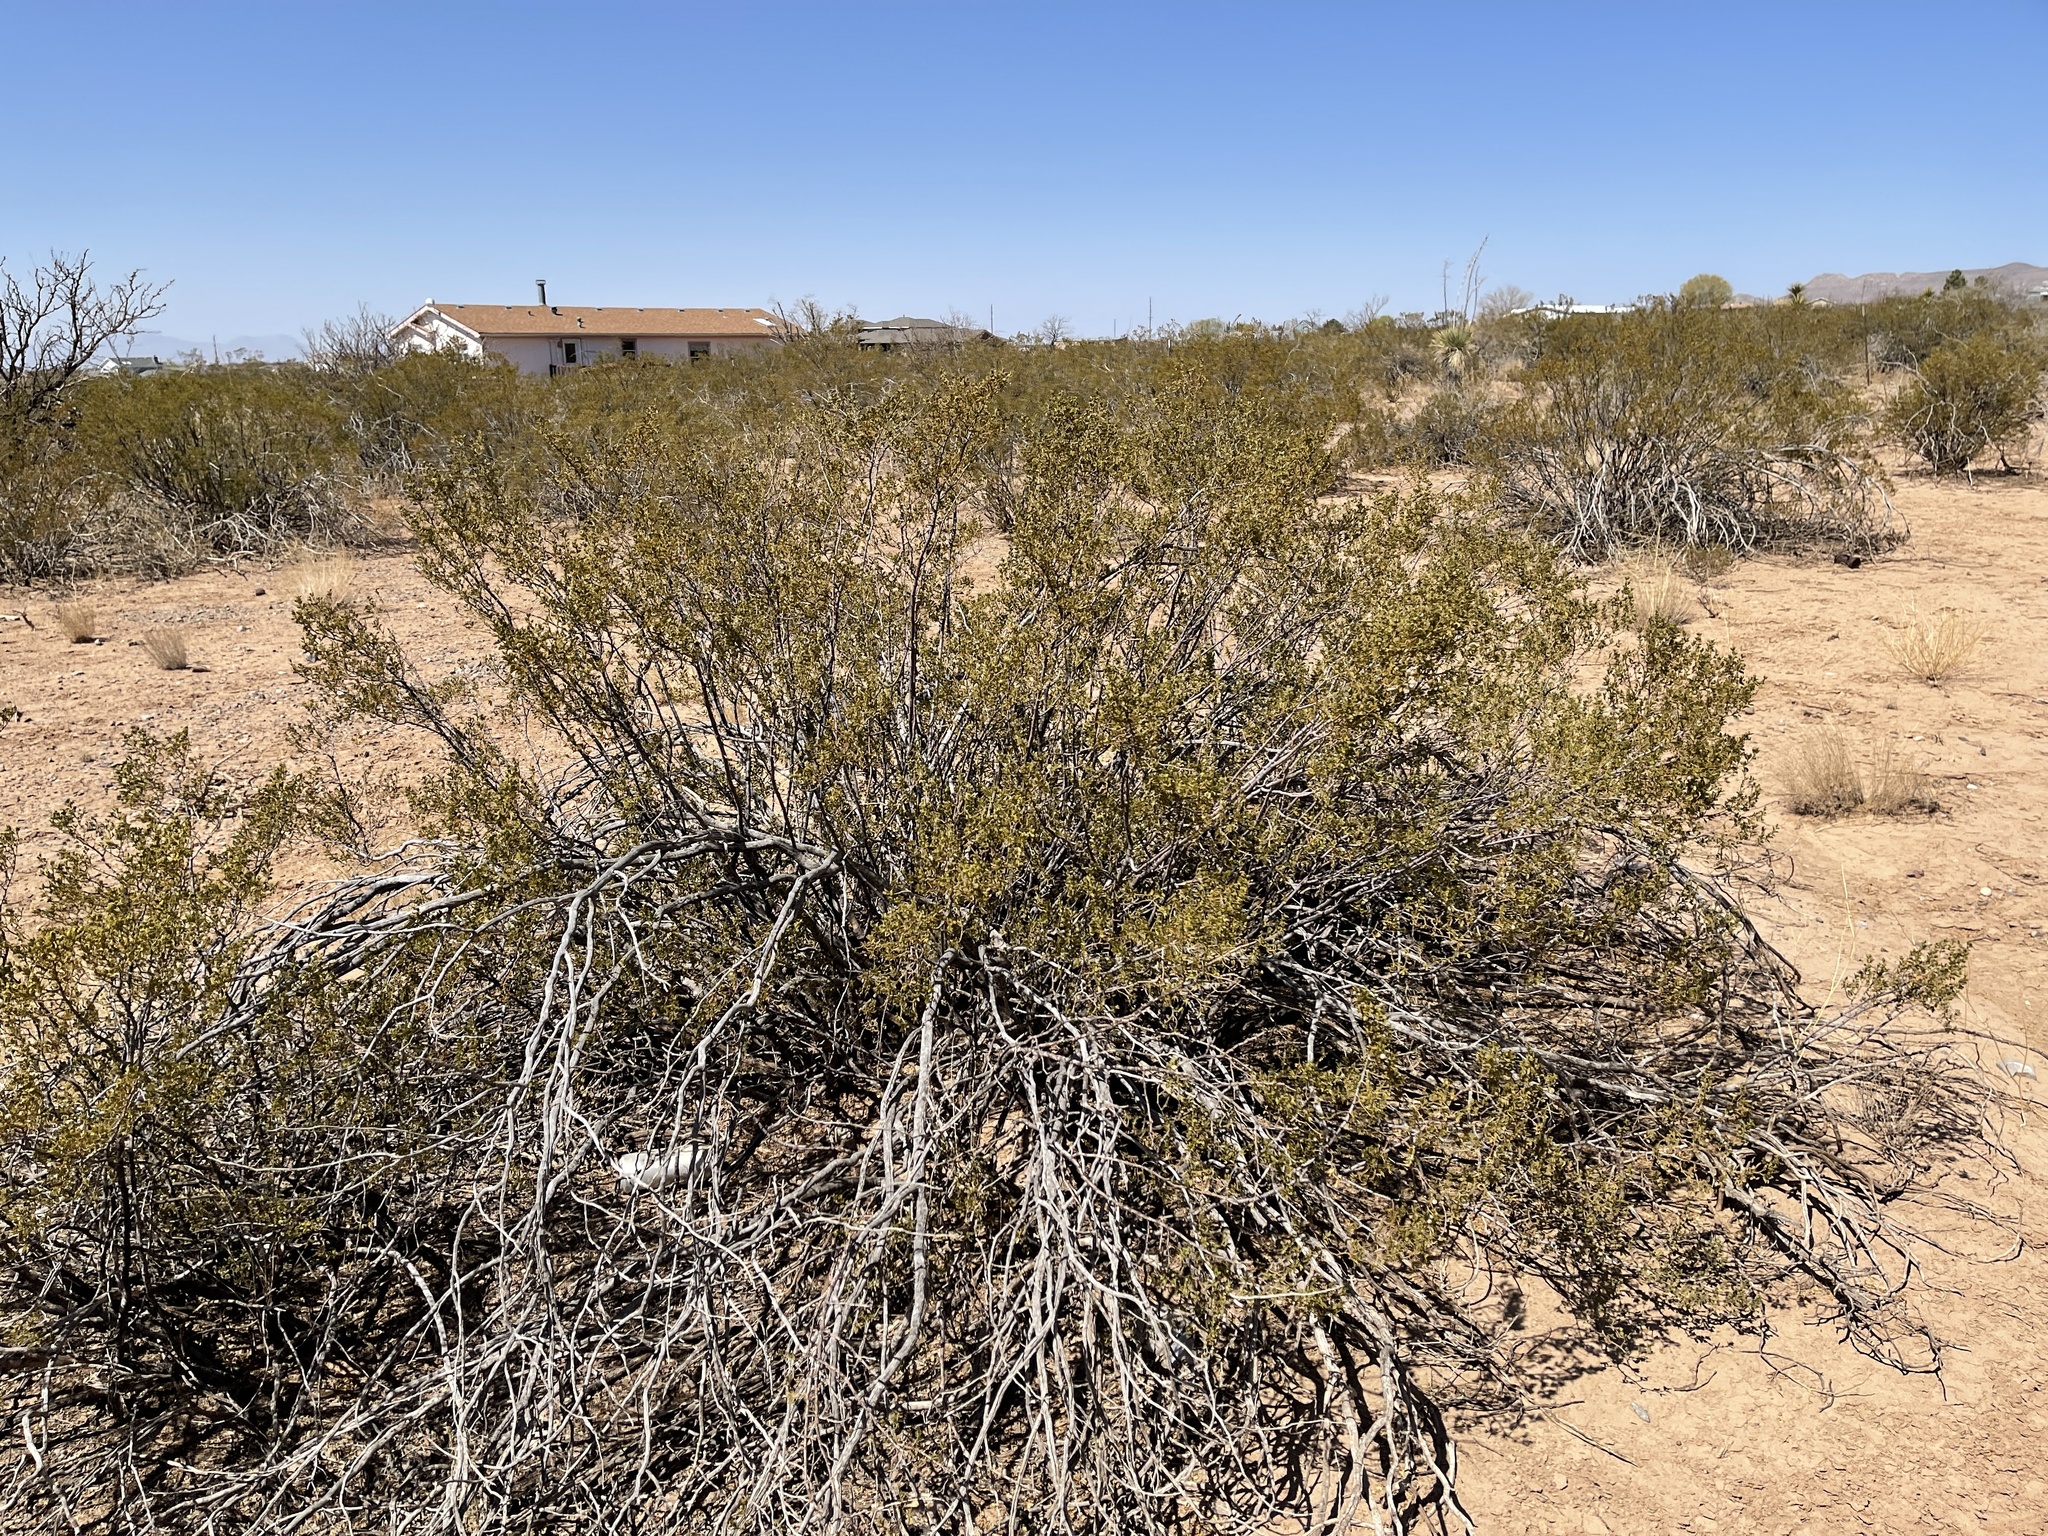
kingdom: Plantae
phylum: Tracheophyta
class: Magnoliopsida
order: Zygophyllales
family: Zygophyllaceae
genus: Larrea
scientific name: Larrea tridentata
